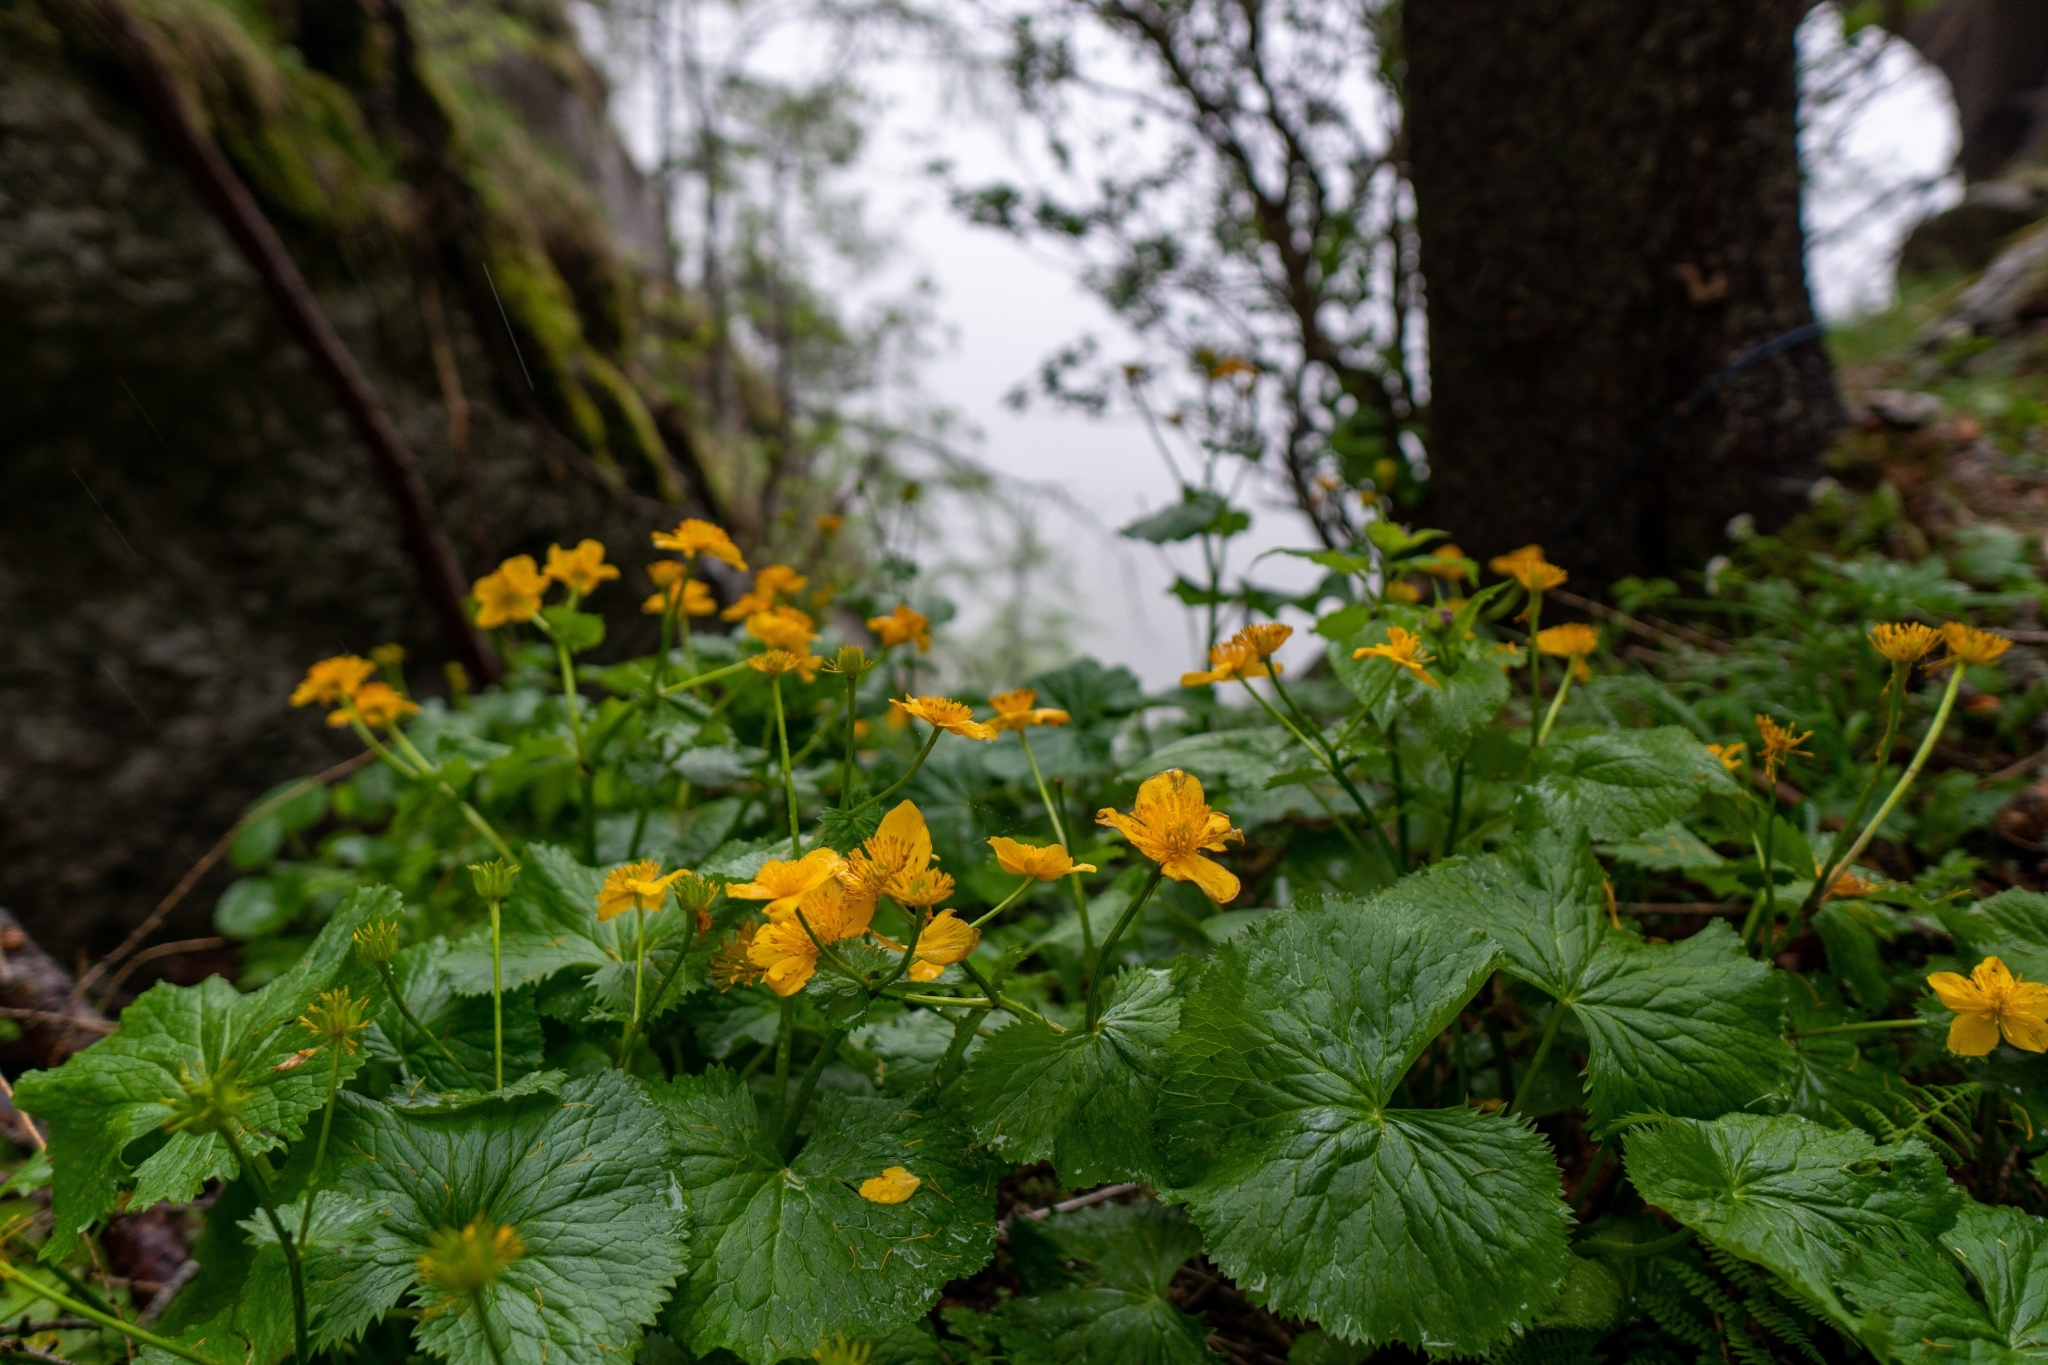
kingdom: Plantae
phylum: Tracheophyta
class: Magnoliopsida
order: Ranunculales
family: Ranunculaceae
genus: Caltha
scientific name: Caltha palustris
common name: Marsh marigold
